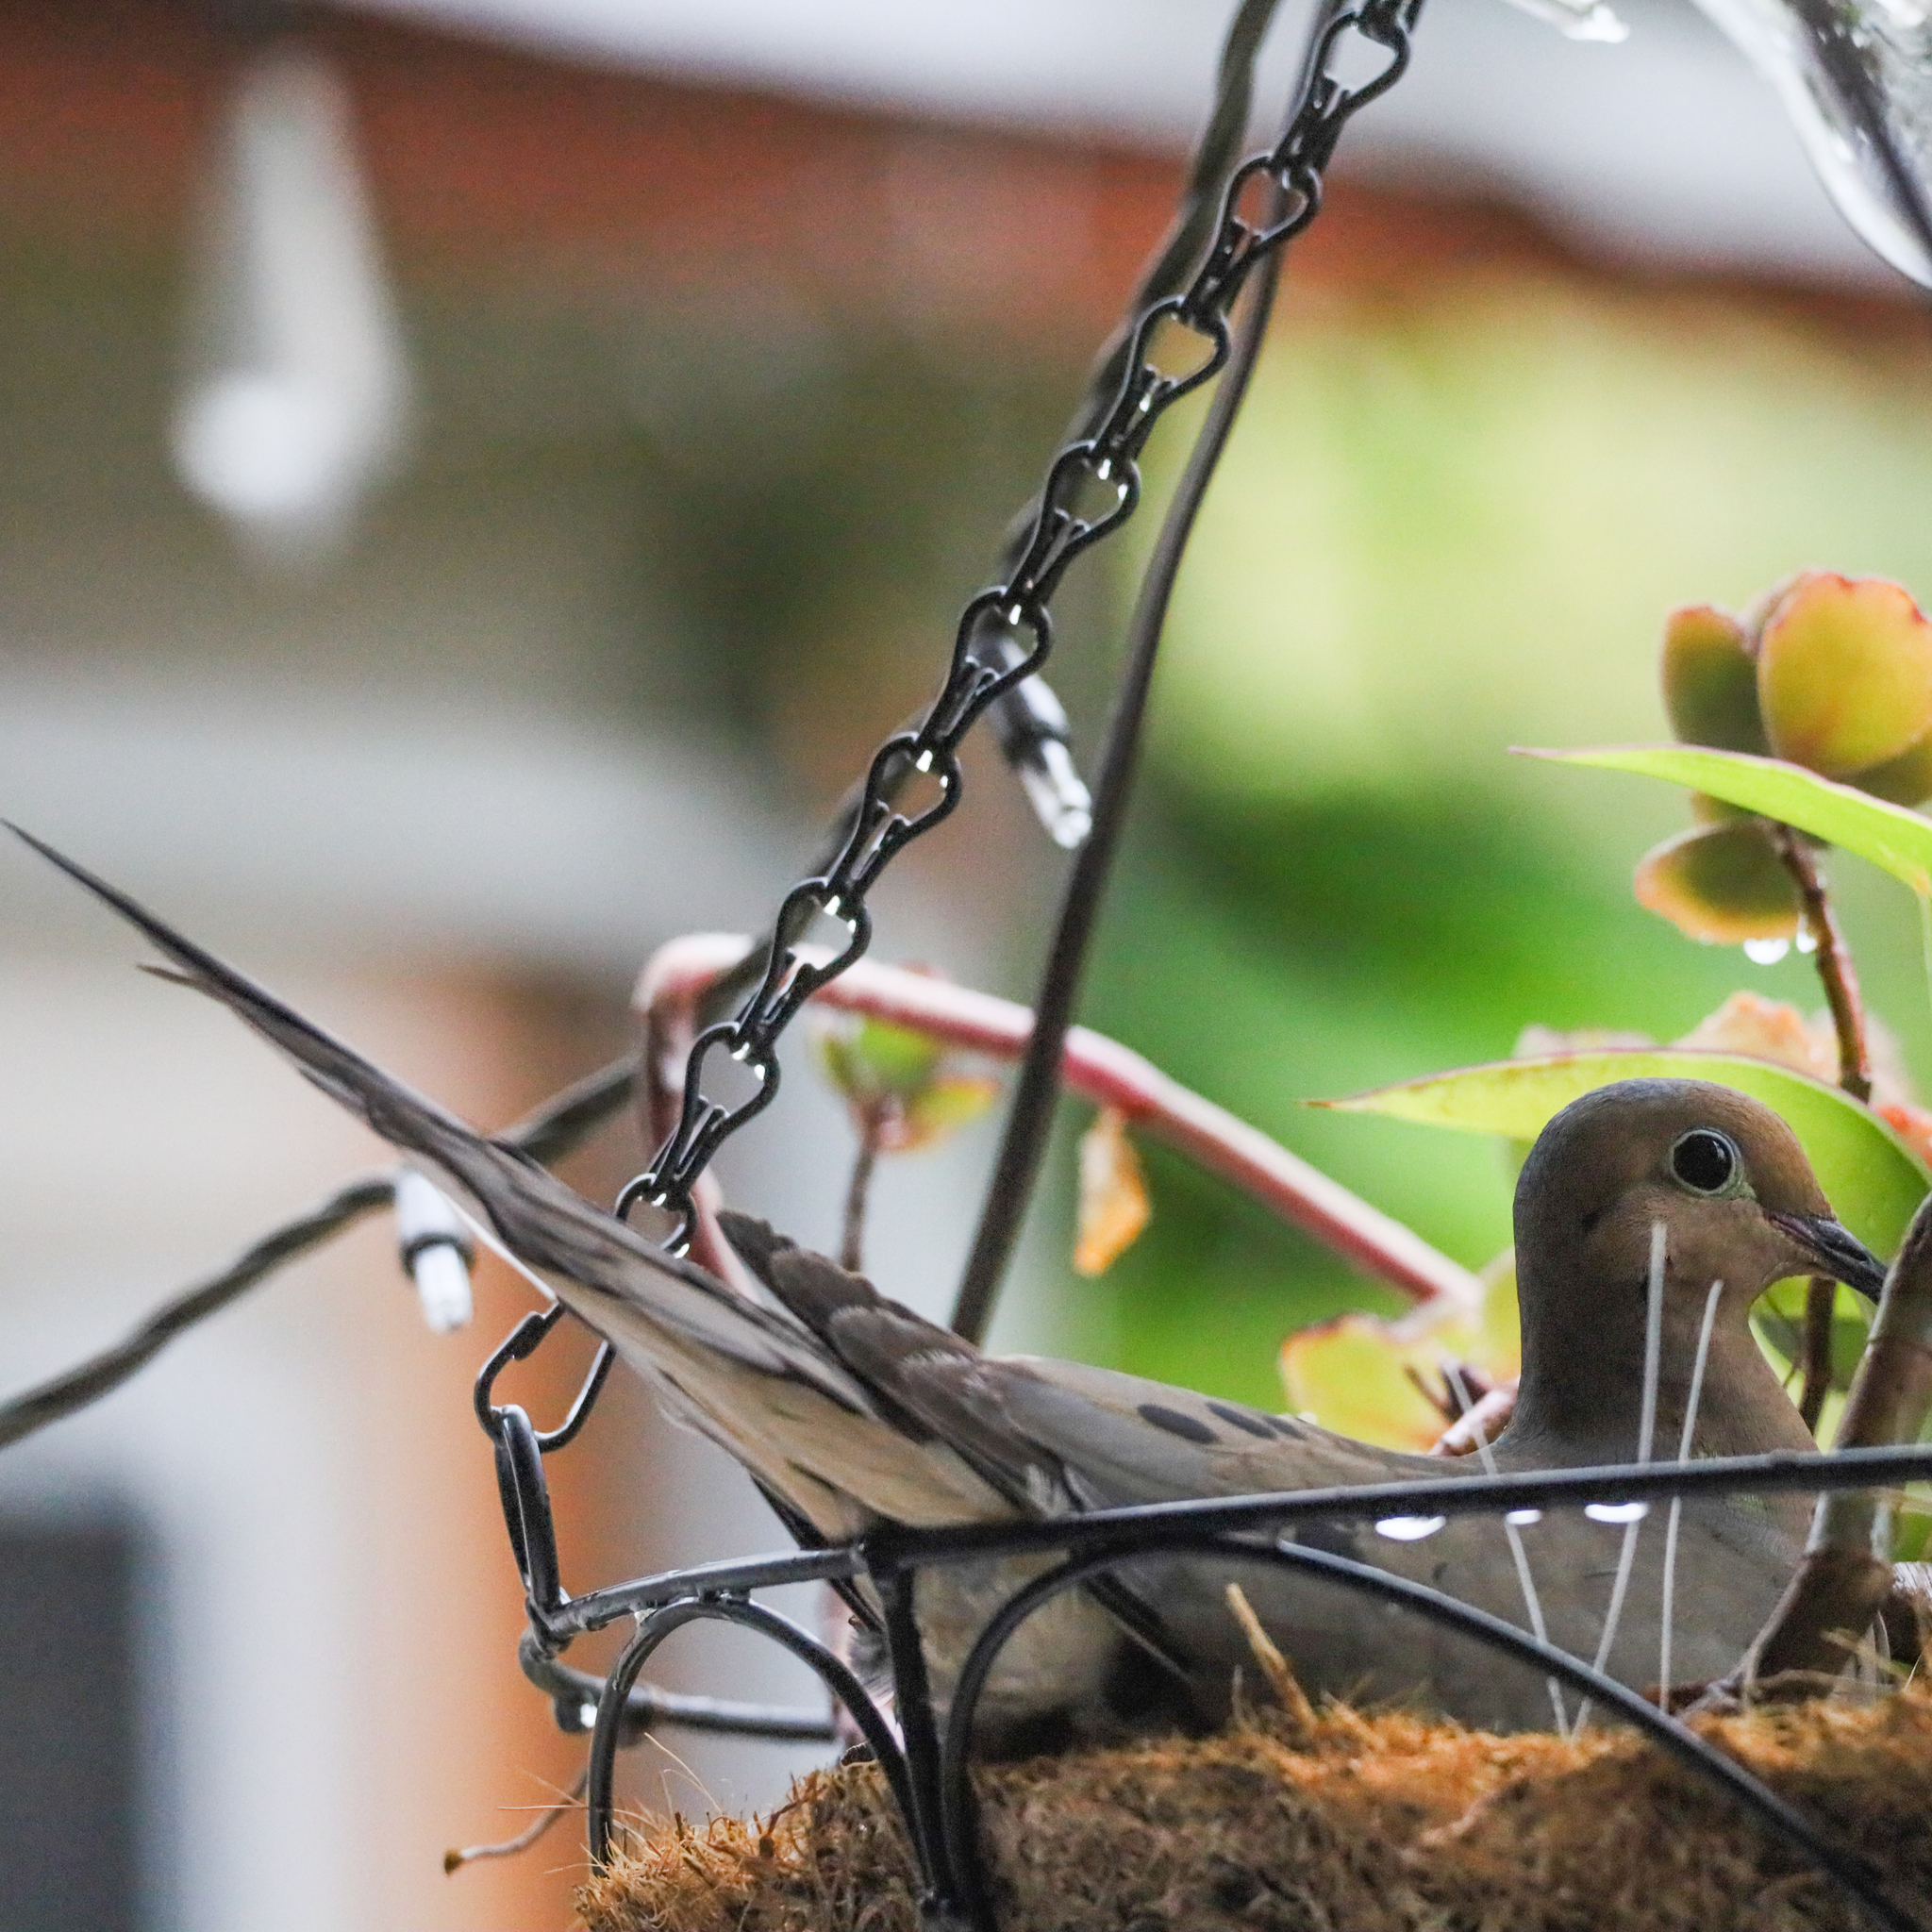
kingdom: Animalia
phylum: Chordata
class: Aves
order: Columbiformes
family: Columbidae
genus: Zenaida
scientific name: Zenaida macroura
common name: Mourning dove
